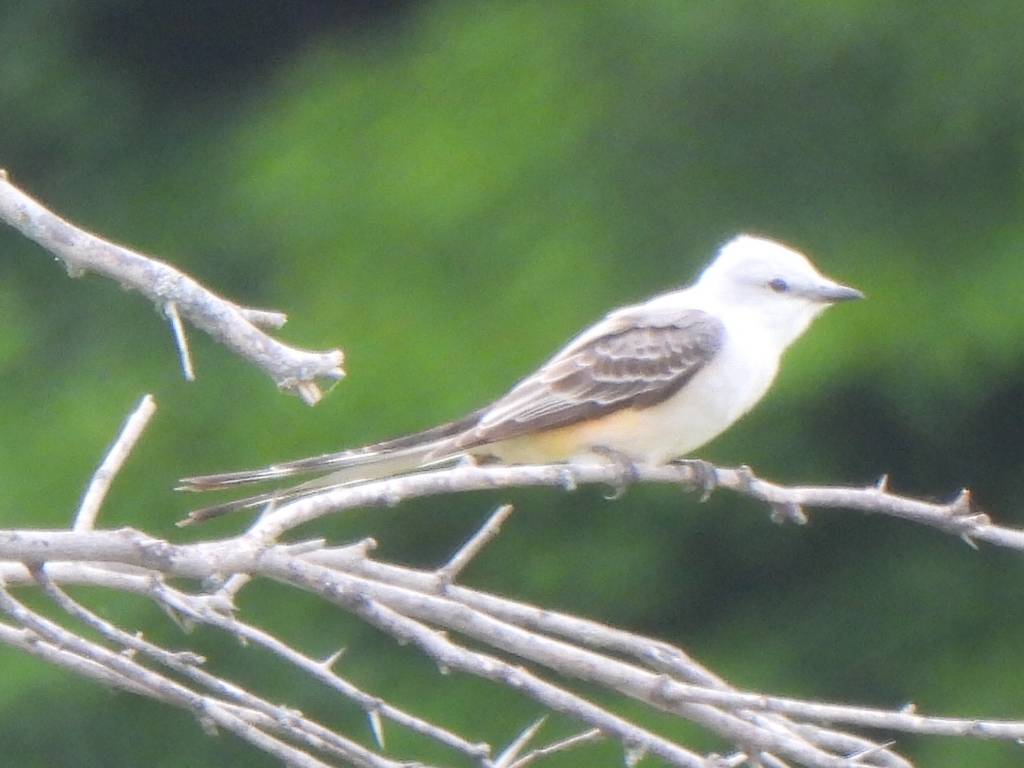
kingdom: Animalia
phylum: Chordata
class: Aves
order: Passeriformes
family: Tyrannidae
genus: Tyrannus
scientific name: Tyrannus forficatus
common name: Scissor-tailed flycatcher
